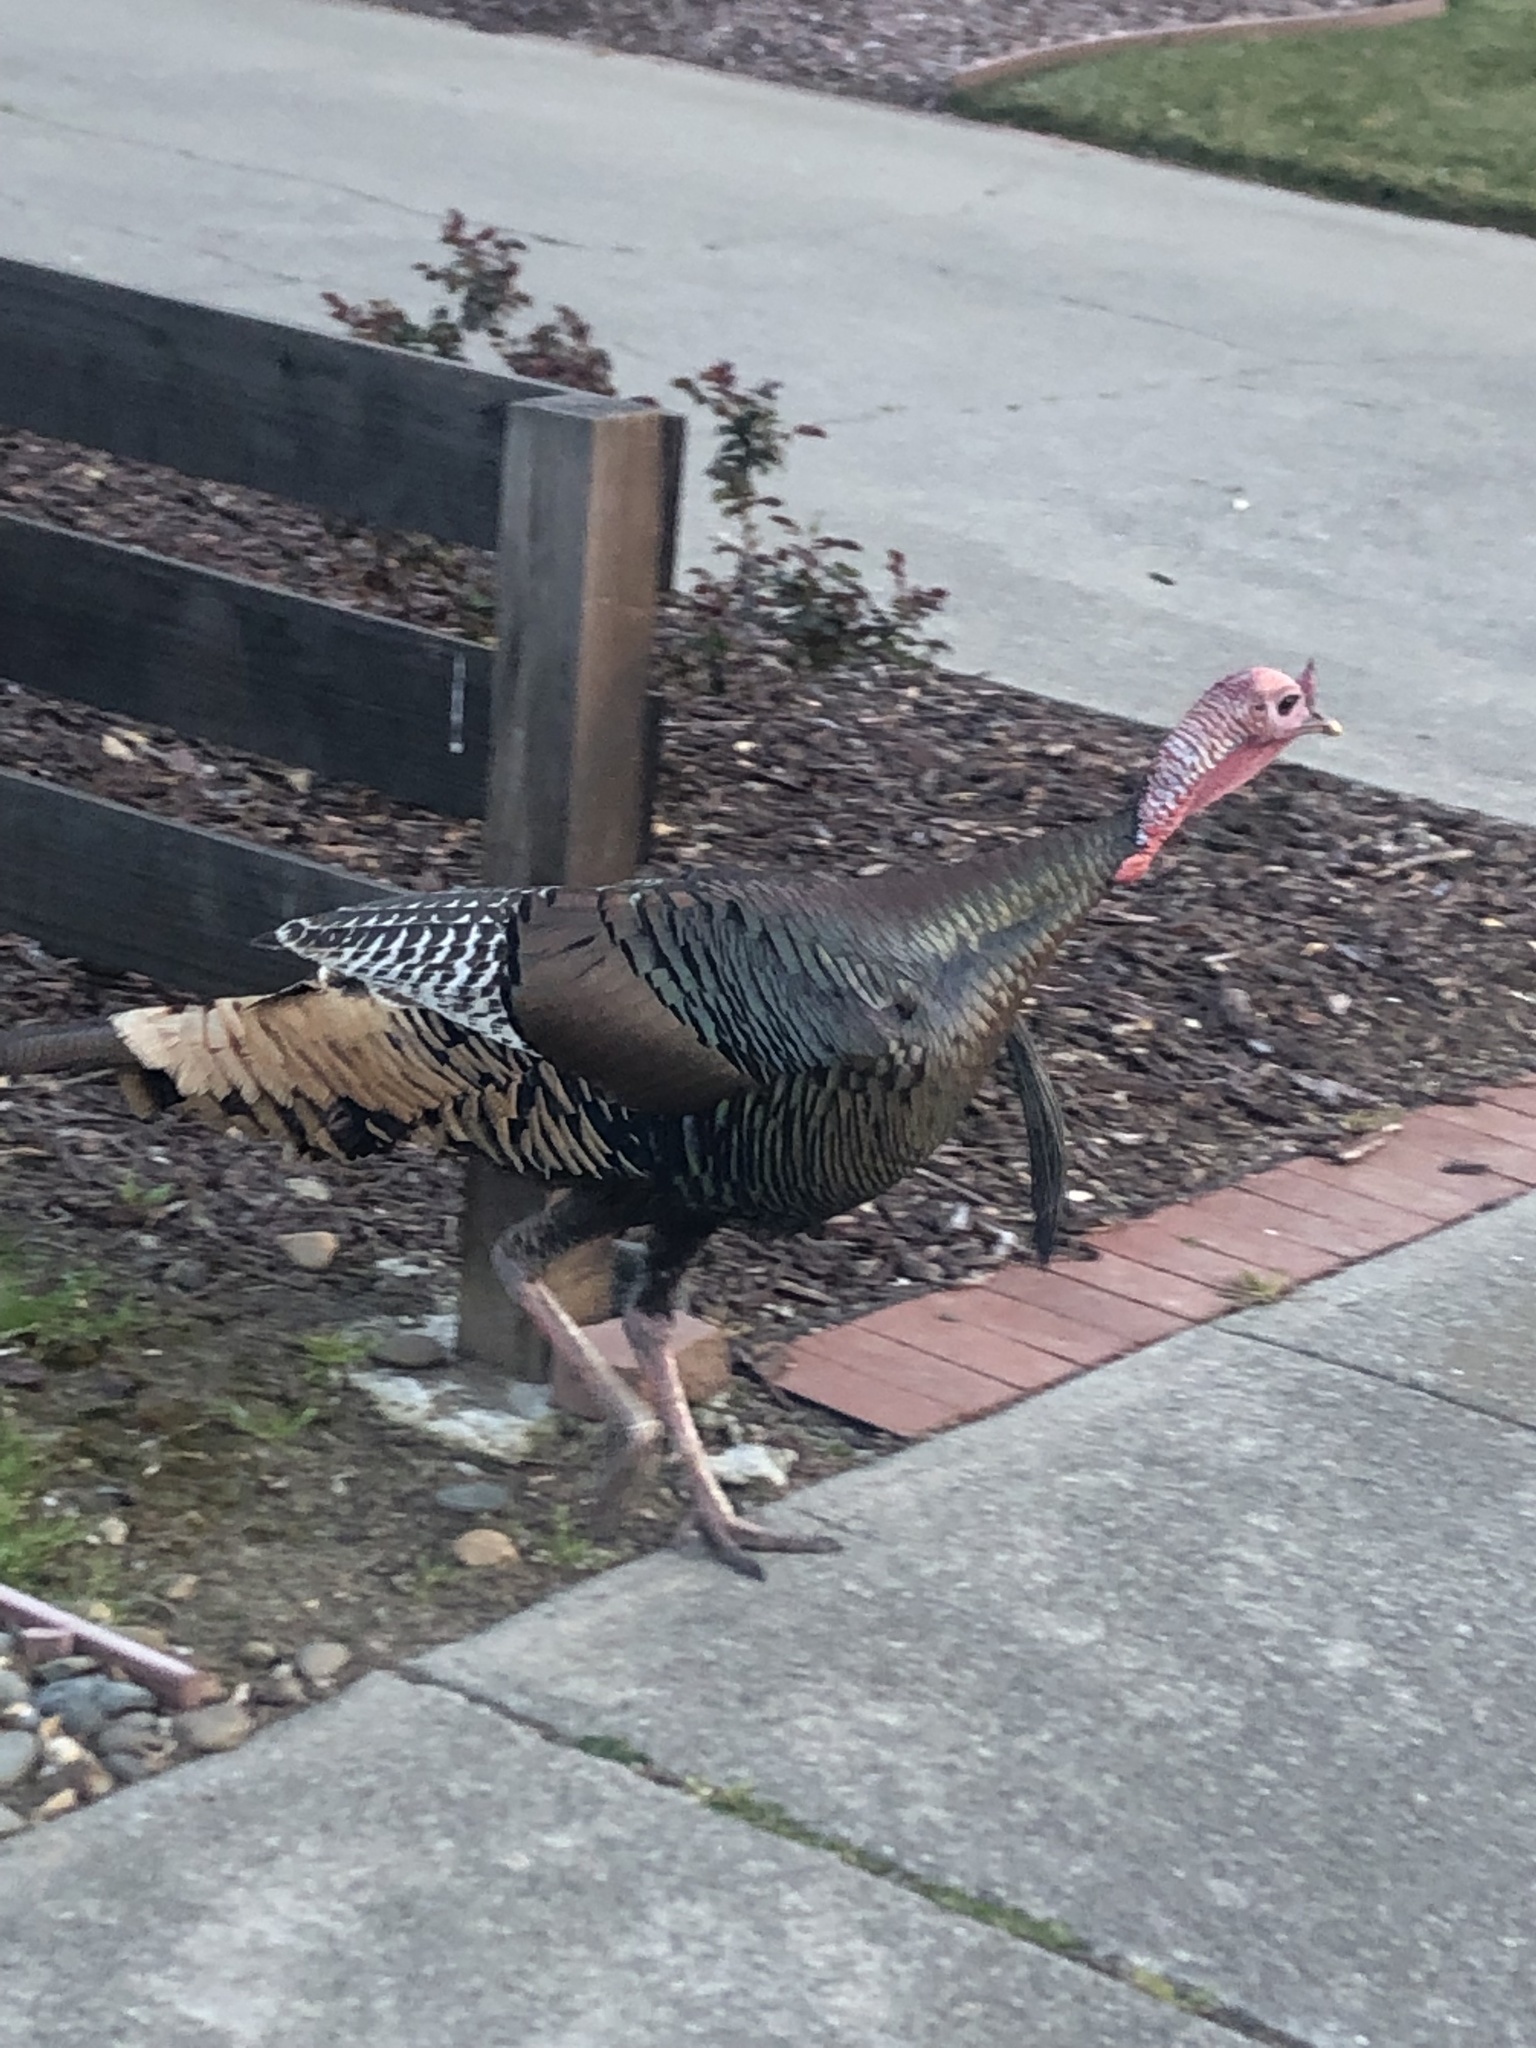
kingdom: Animalia
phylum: Chordata
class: Aves
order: Galliformes
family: Phasianidae
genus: Meleagris
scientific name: Meleagris gallopavo
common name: Wild turkey
